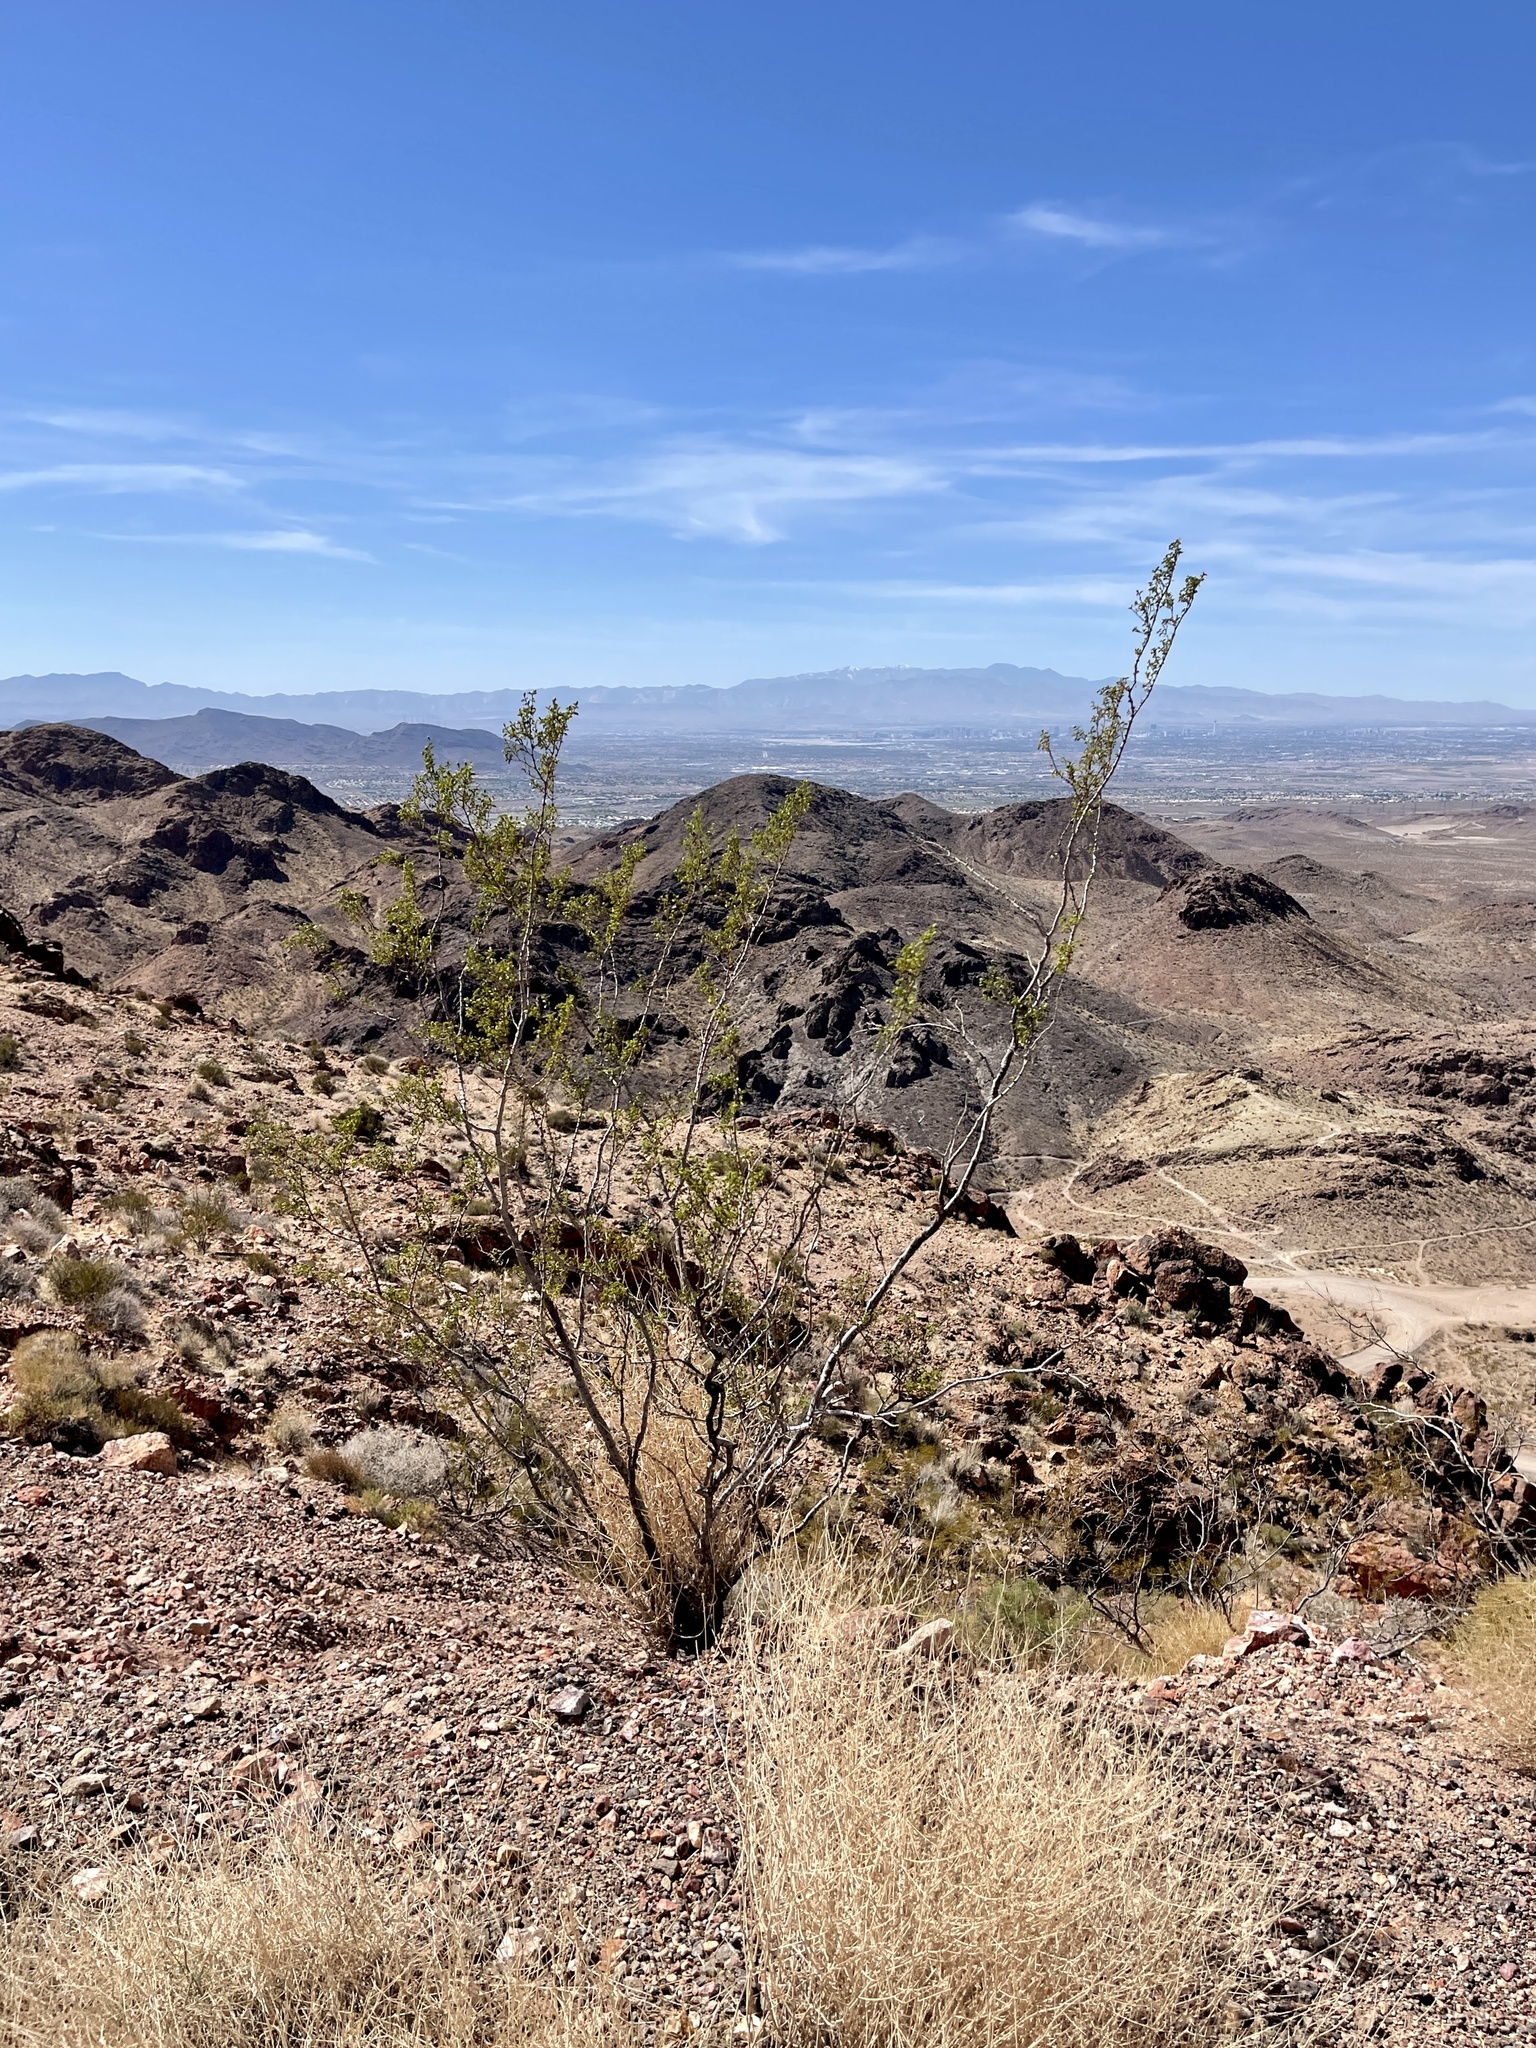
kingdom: Plantae
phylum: Tracheophyta
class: Magnoliopsida
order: Zygophyllales
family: Zygophyllaceae
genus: Larrea
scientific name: Larrea tridentata
